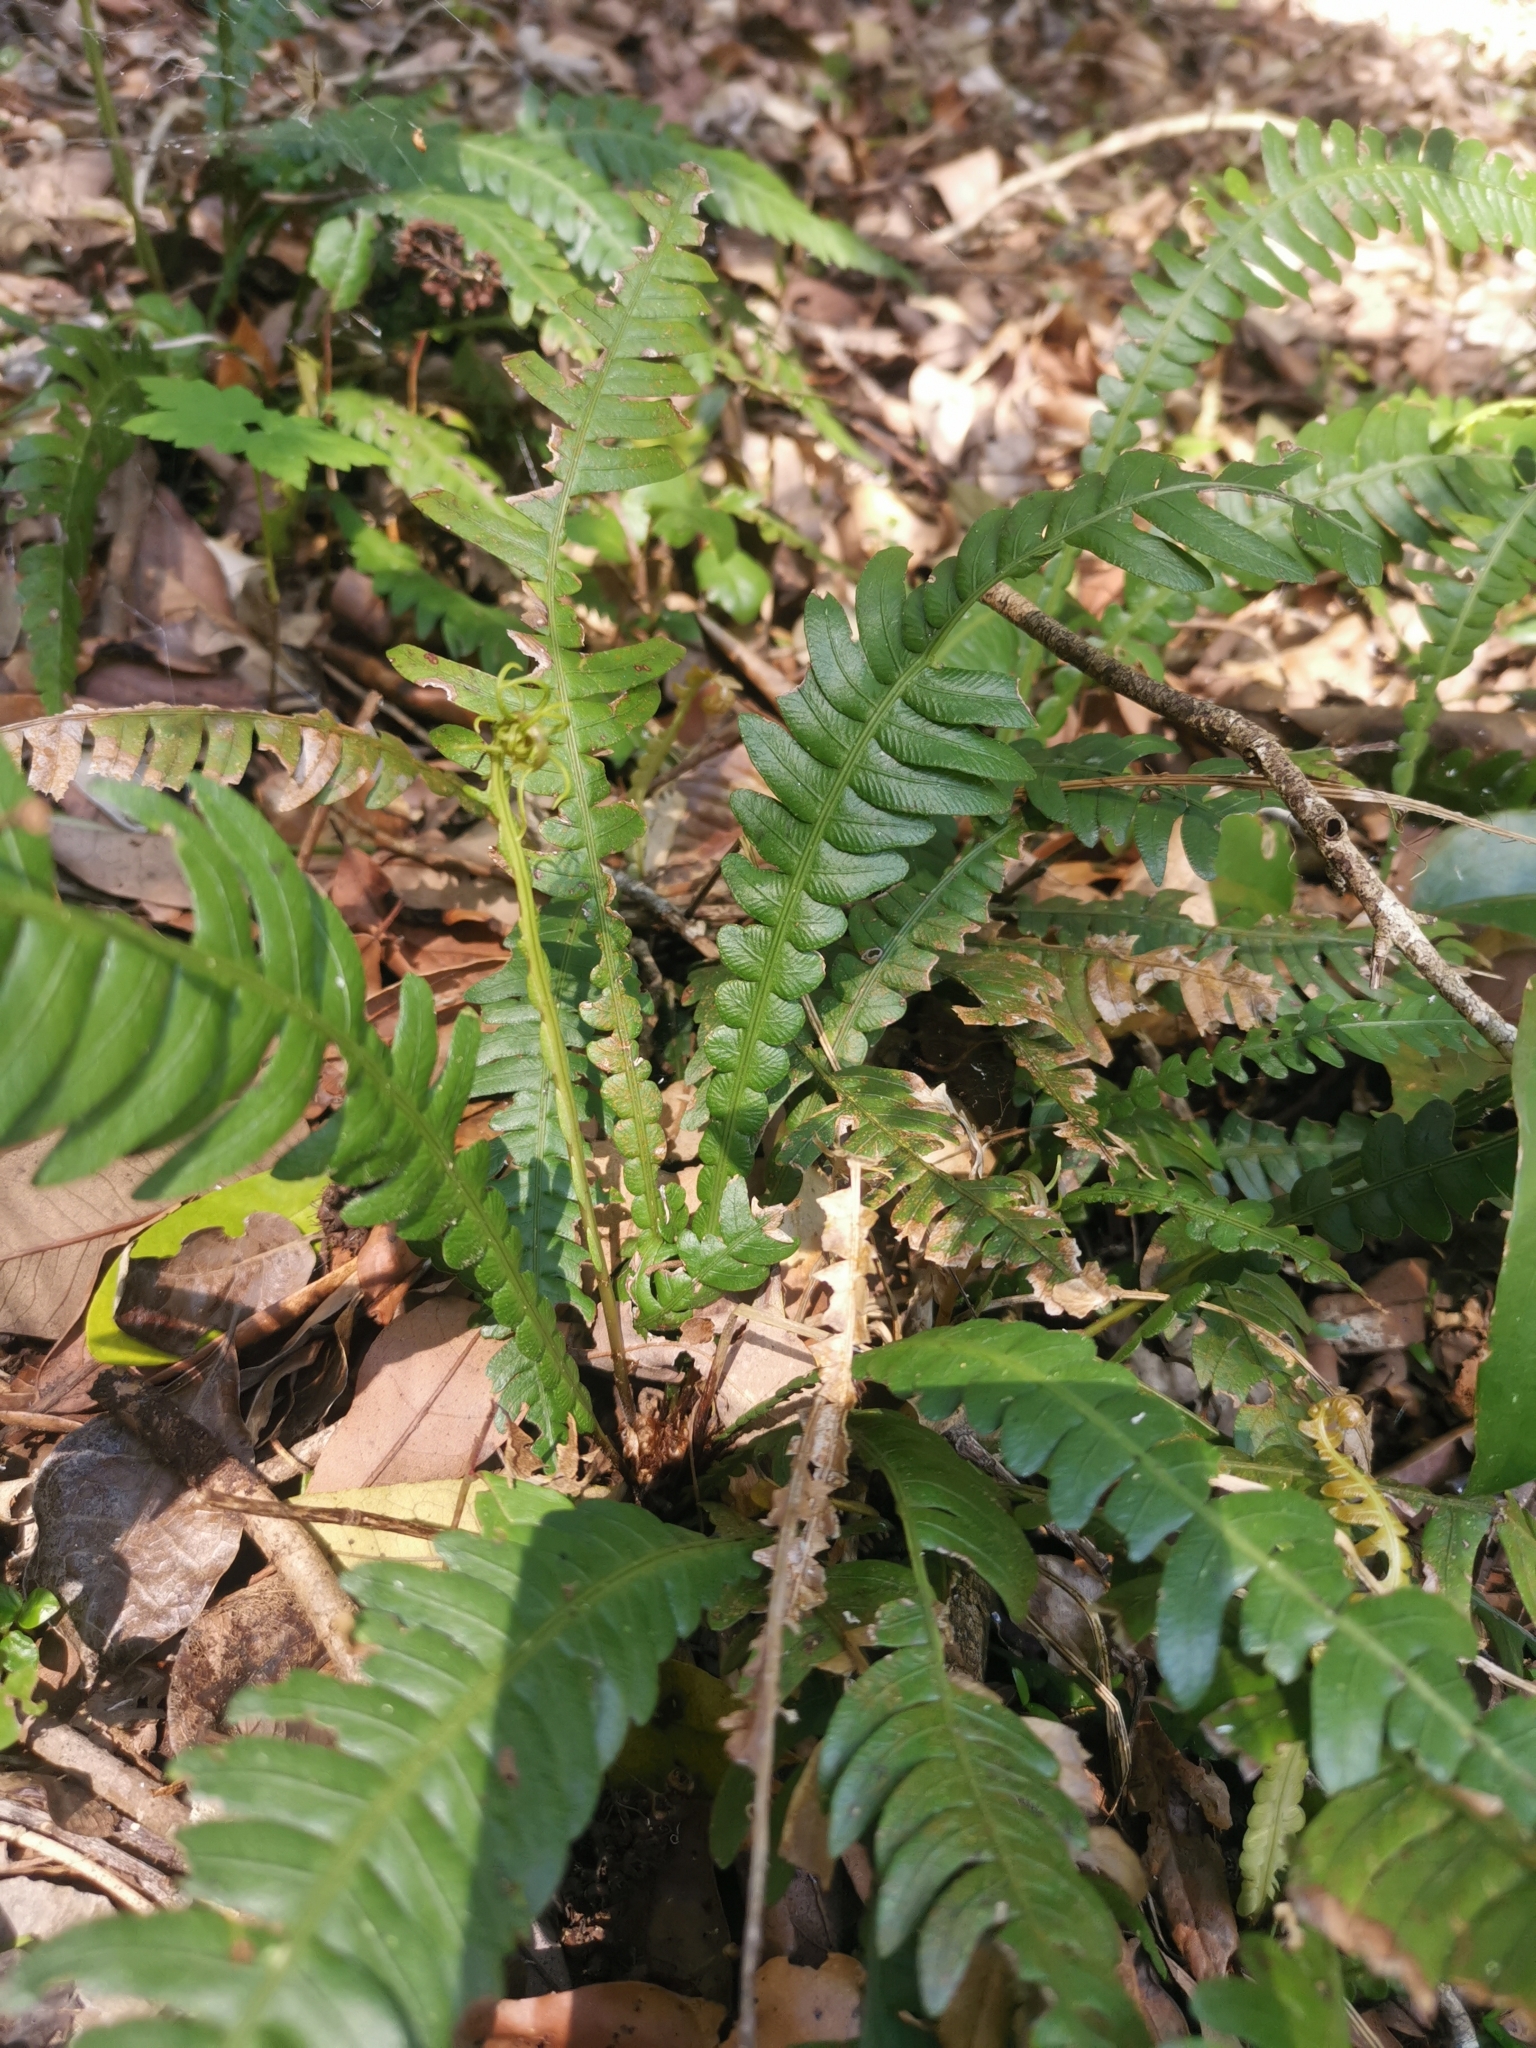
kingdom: Plantae
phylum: Tracheophyta
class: Polypodiopsida
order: Polypodiales
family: Blechnaceae
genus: Austroblechnum
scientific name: Austroblechnum lechleri
